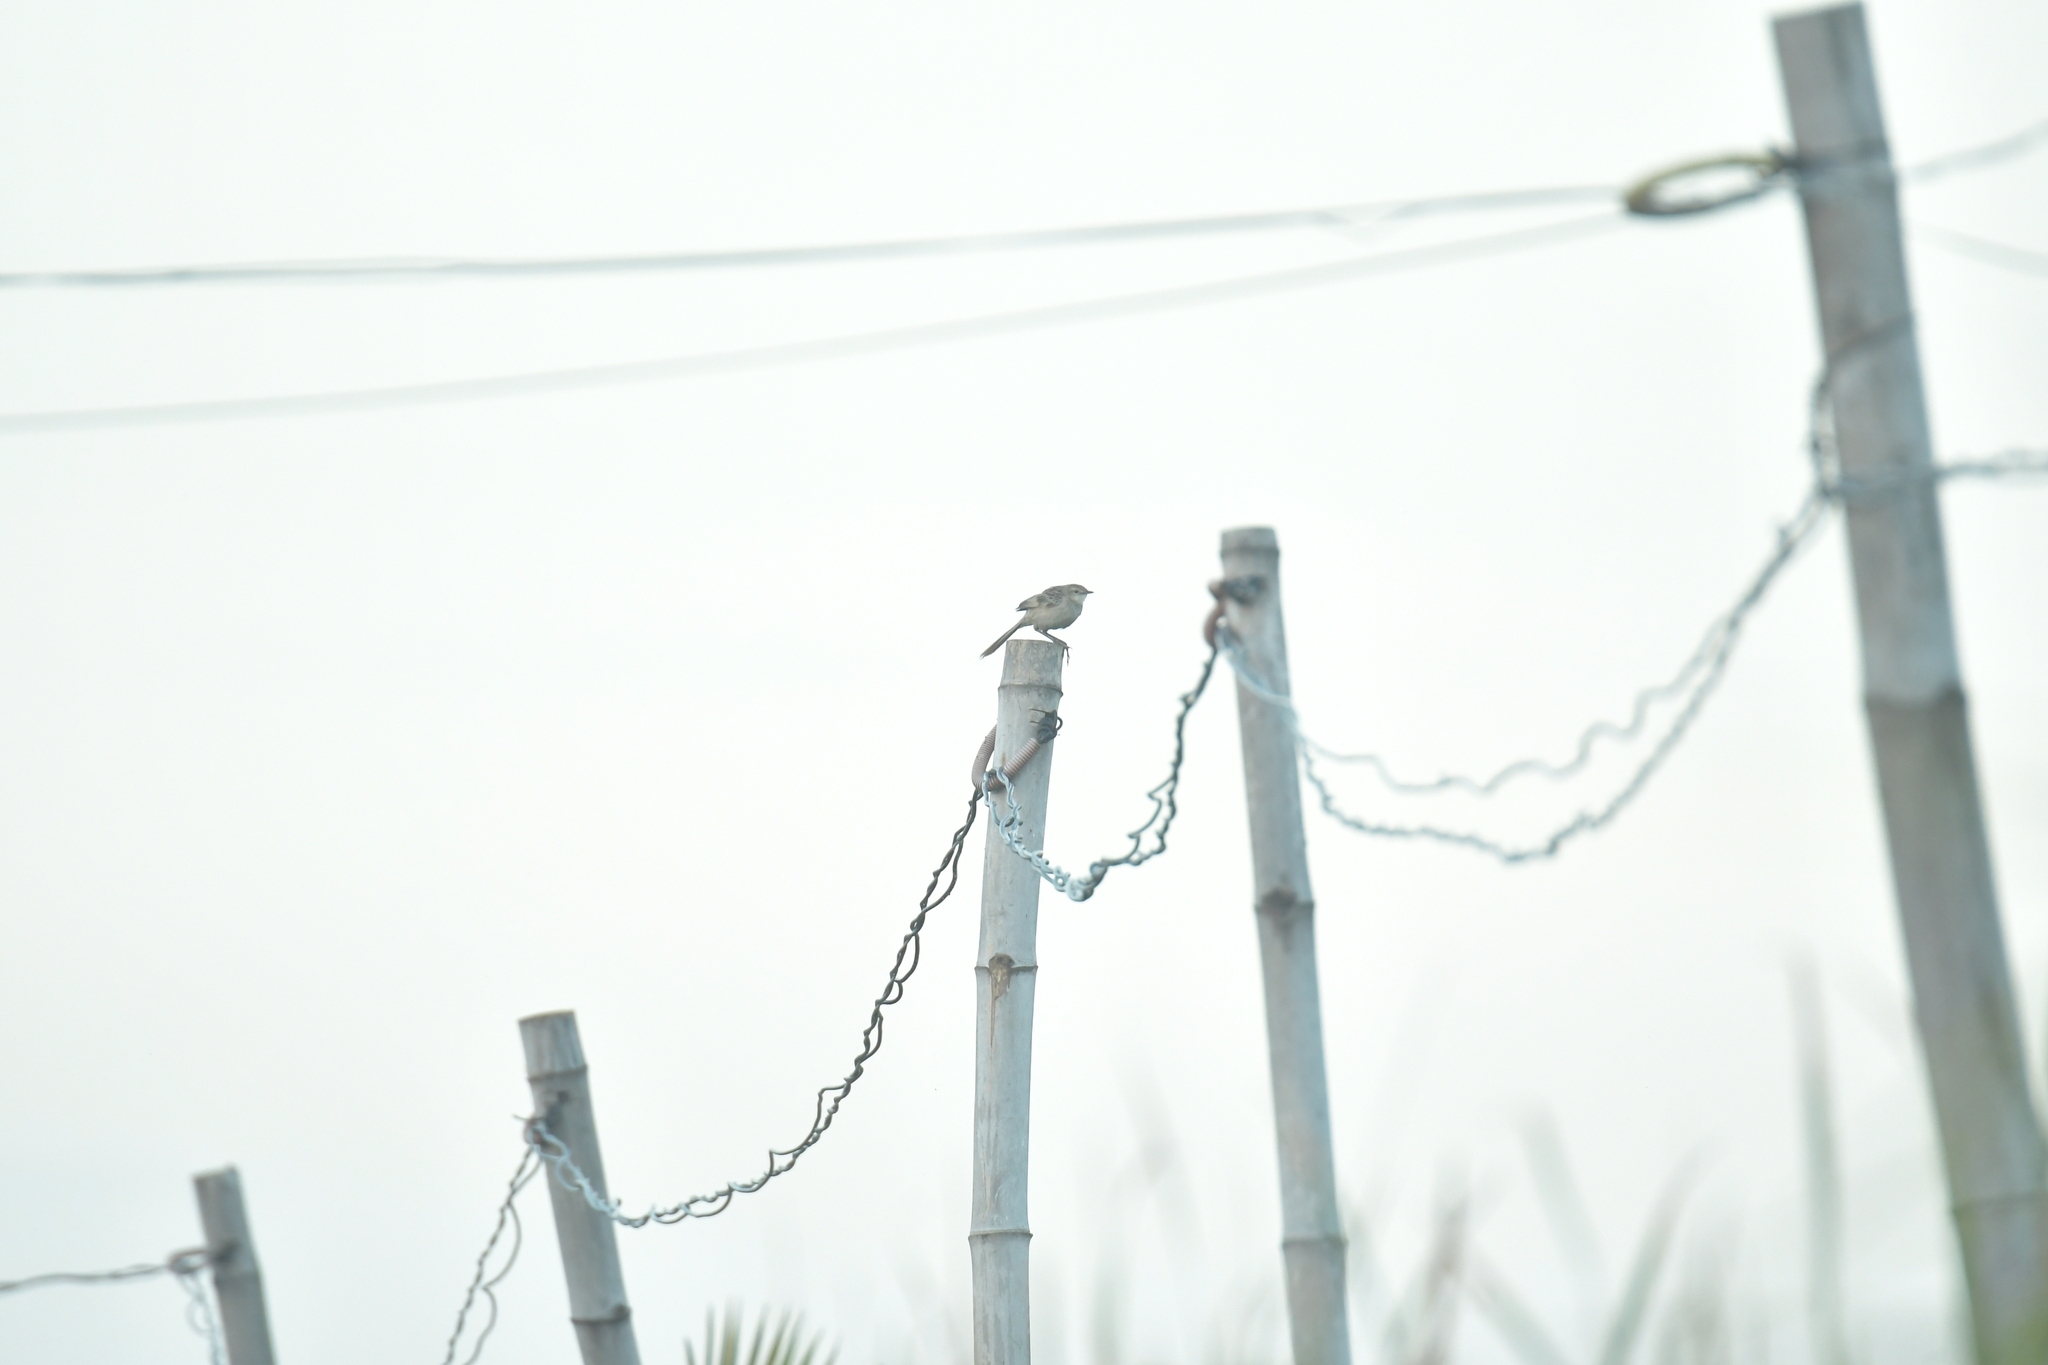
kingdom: Animalia
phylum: Chordata
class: Aves
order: Passeriformes
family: Locustellidae
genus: Megalurus
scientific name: Megalurus palustris
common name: Striated grassbird
